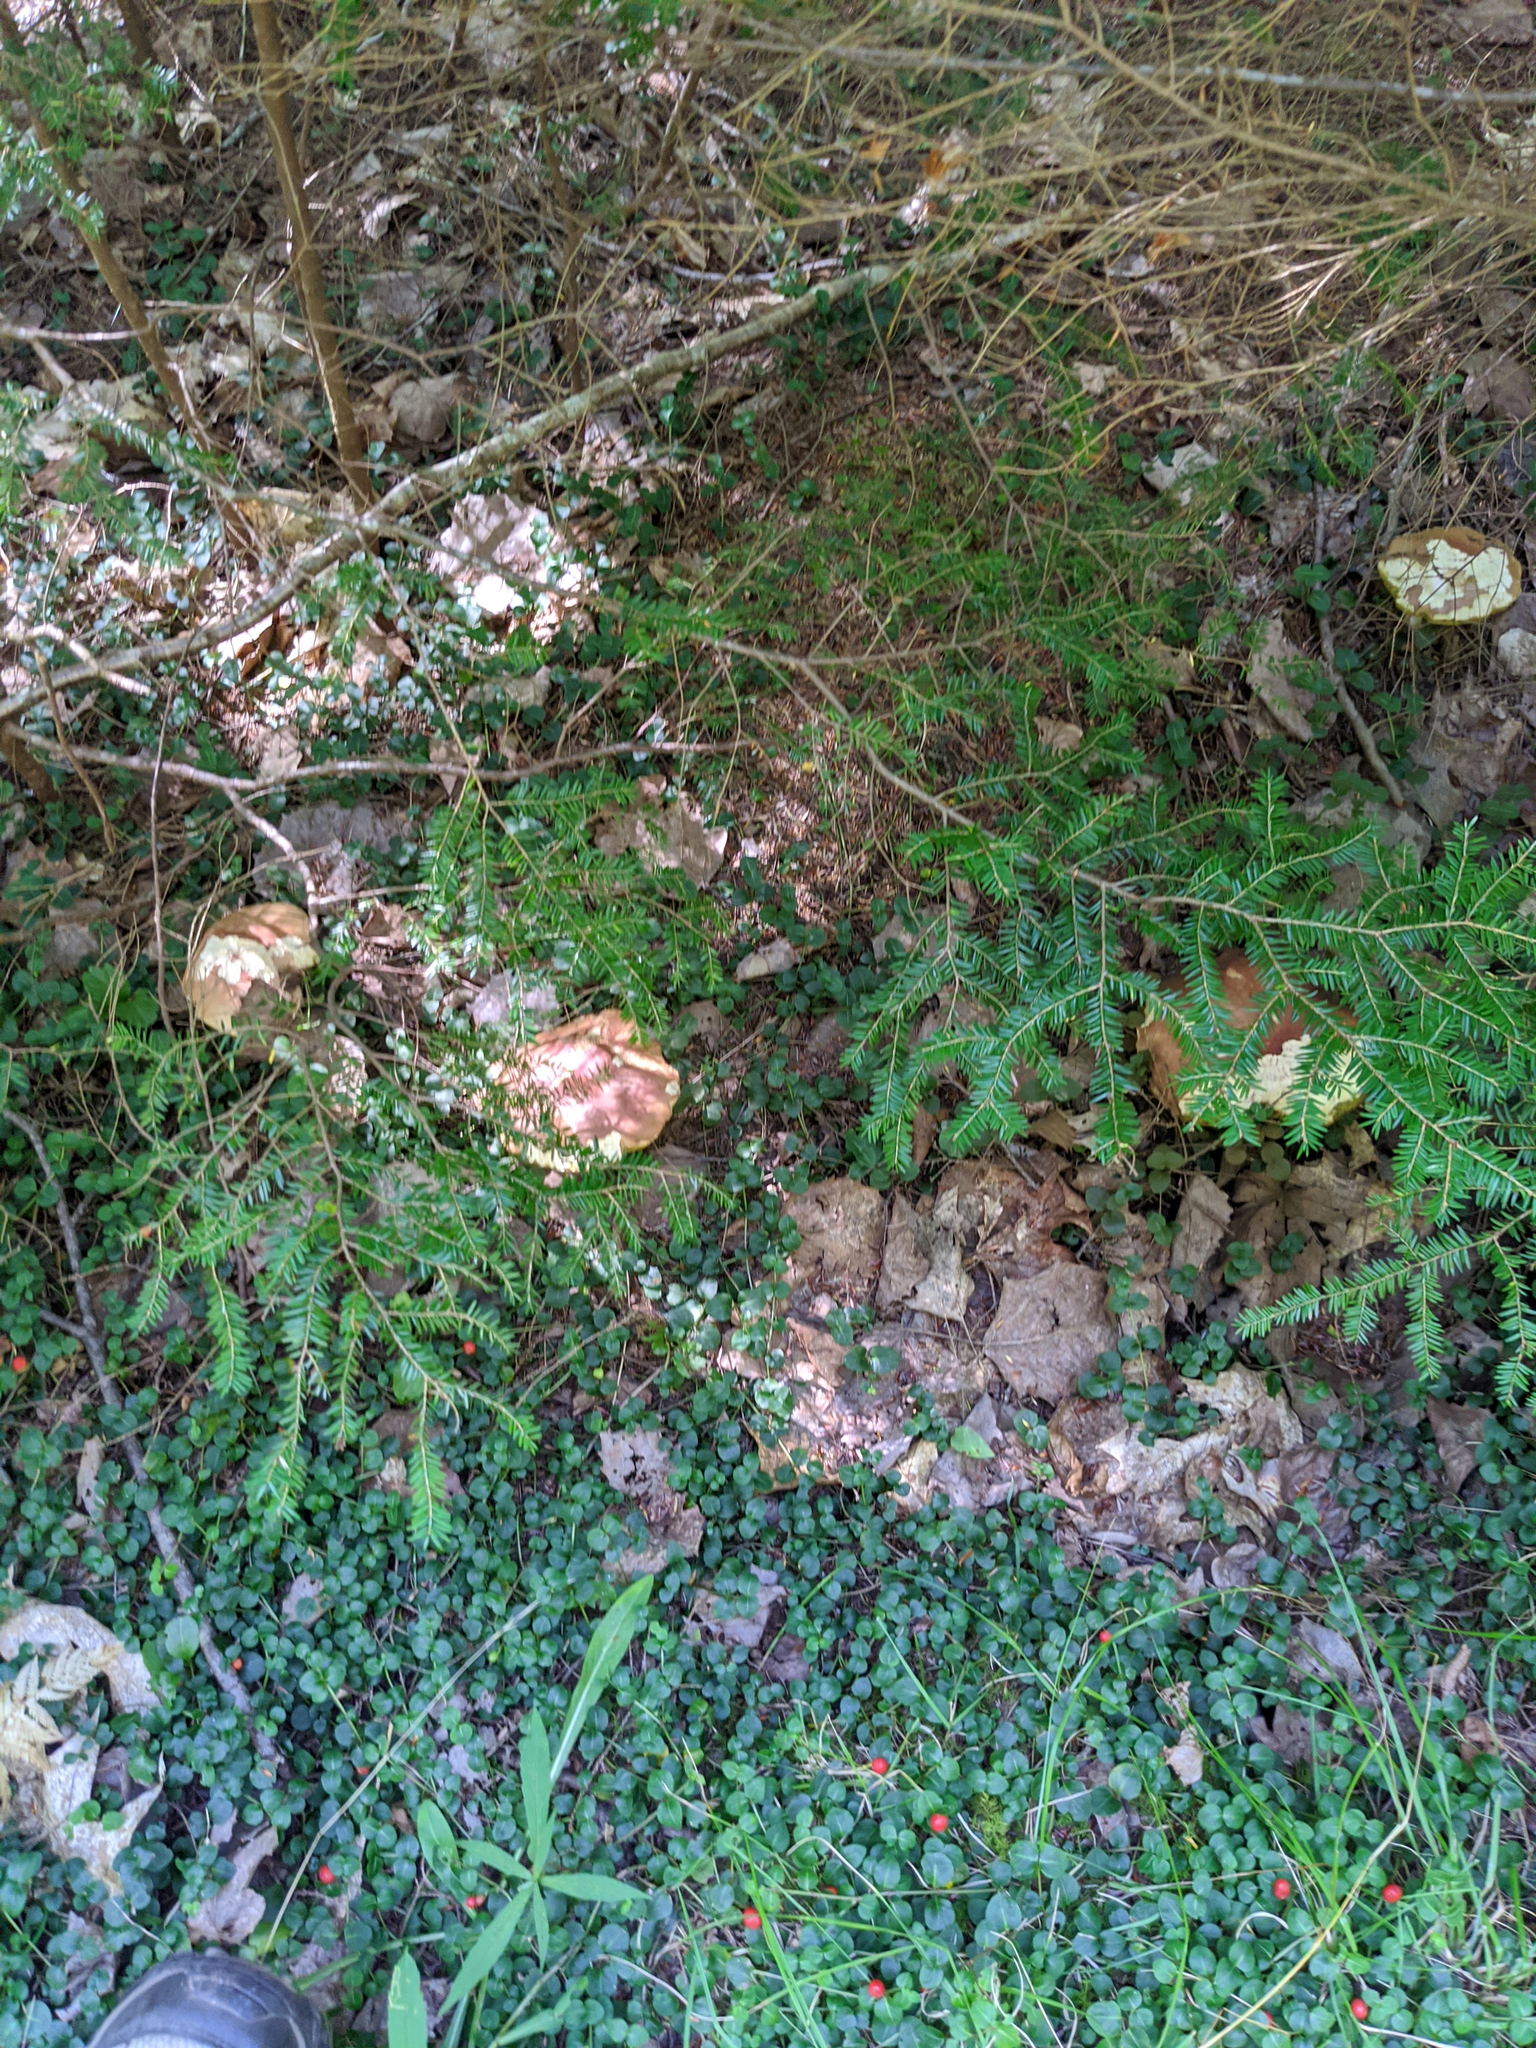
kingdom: Plantae
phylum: Tracheophyta
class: Pinopsida
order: Pinales
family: Pinaceae
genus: Tsuga
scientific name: Tsuga canadensis
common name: Eastern hemlock
